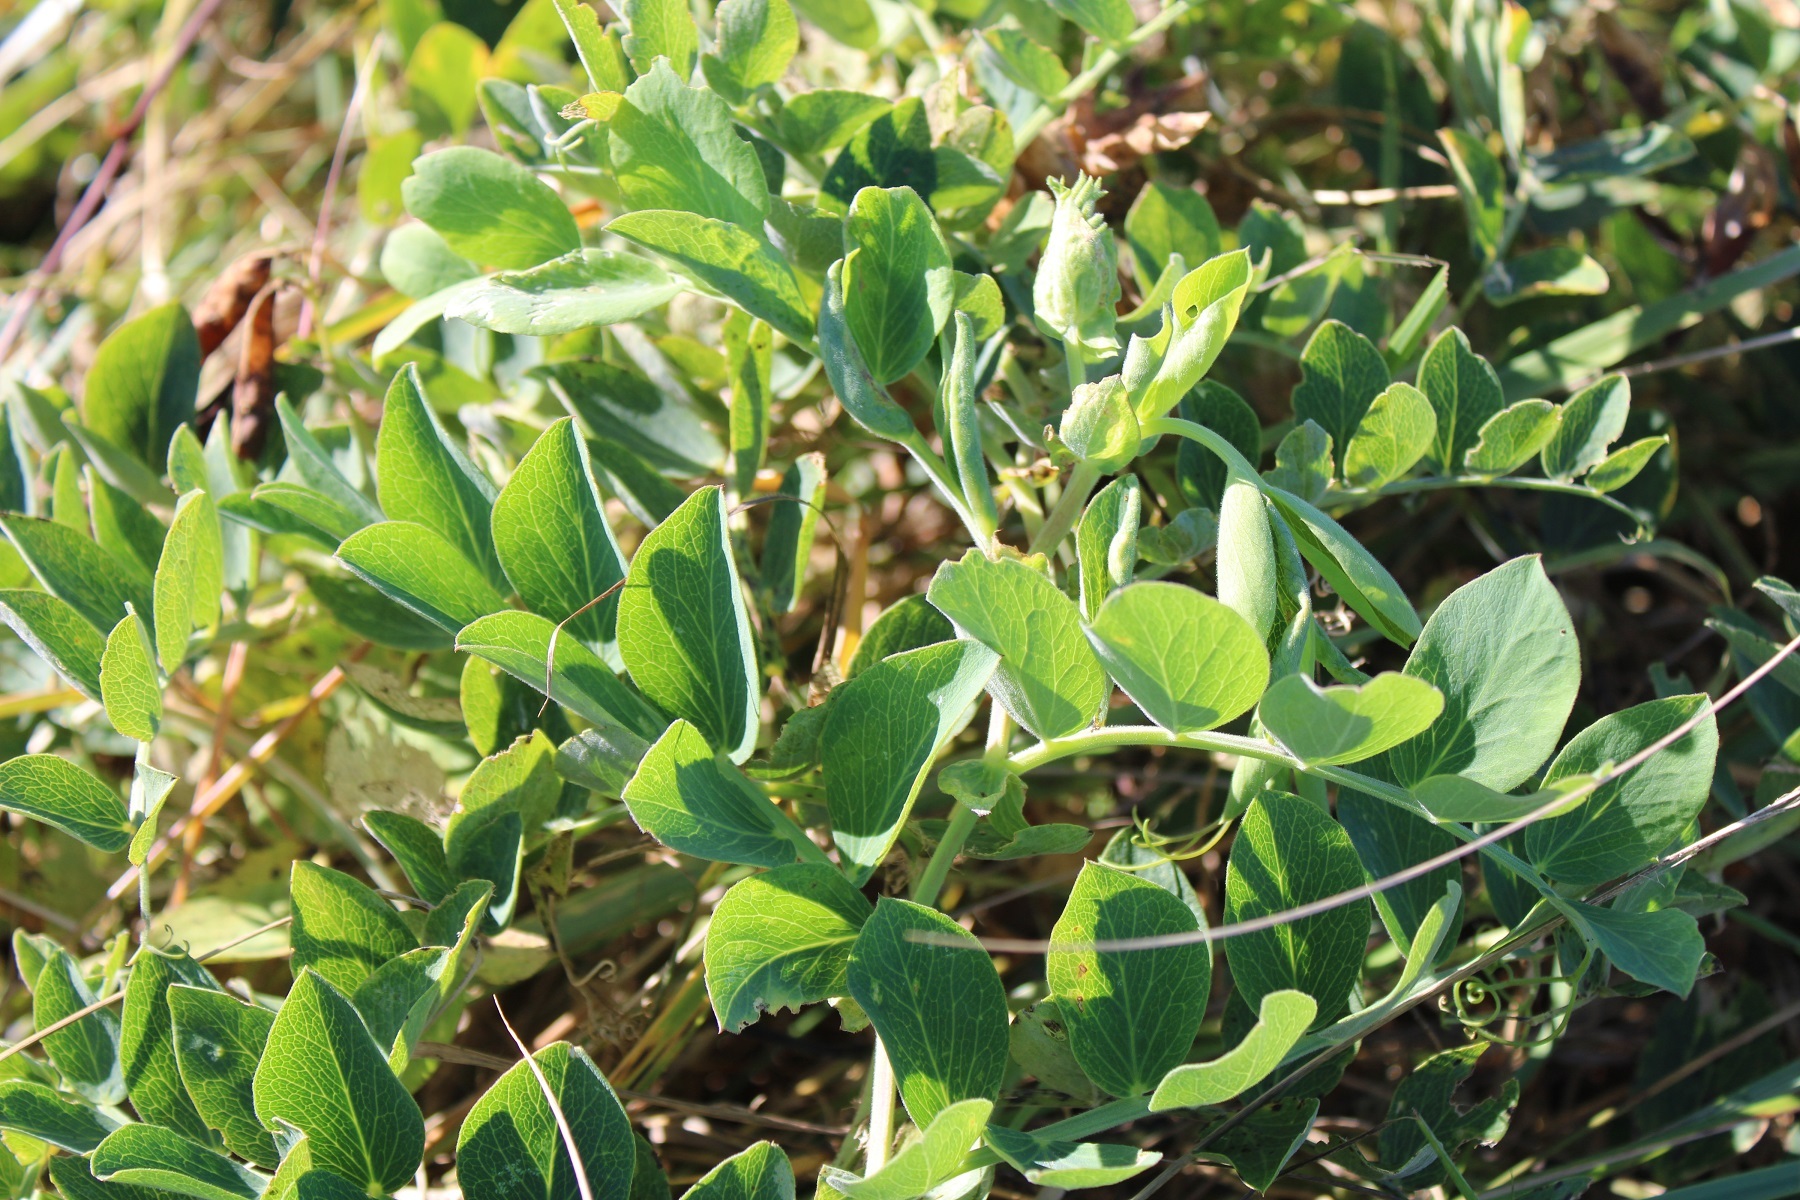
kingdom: Plantae
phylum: Tracheophyta
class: Magnoliopsida
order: Fabales
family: Fabaceae
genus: Lathyrus
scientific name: Lathyrus japonicus
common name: Sea pea
